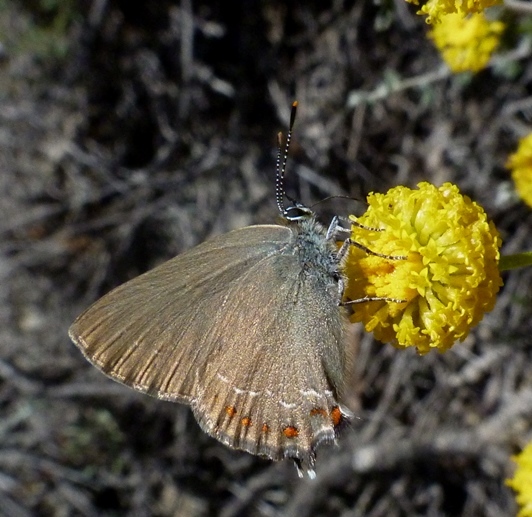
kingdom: Animalia
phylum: Arthropoda
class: Insecta
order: Lepidoptera
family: Lycaenidae
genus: Fixsenia
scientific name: Fixsenia esculi
